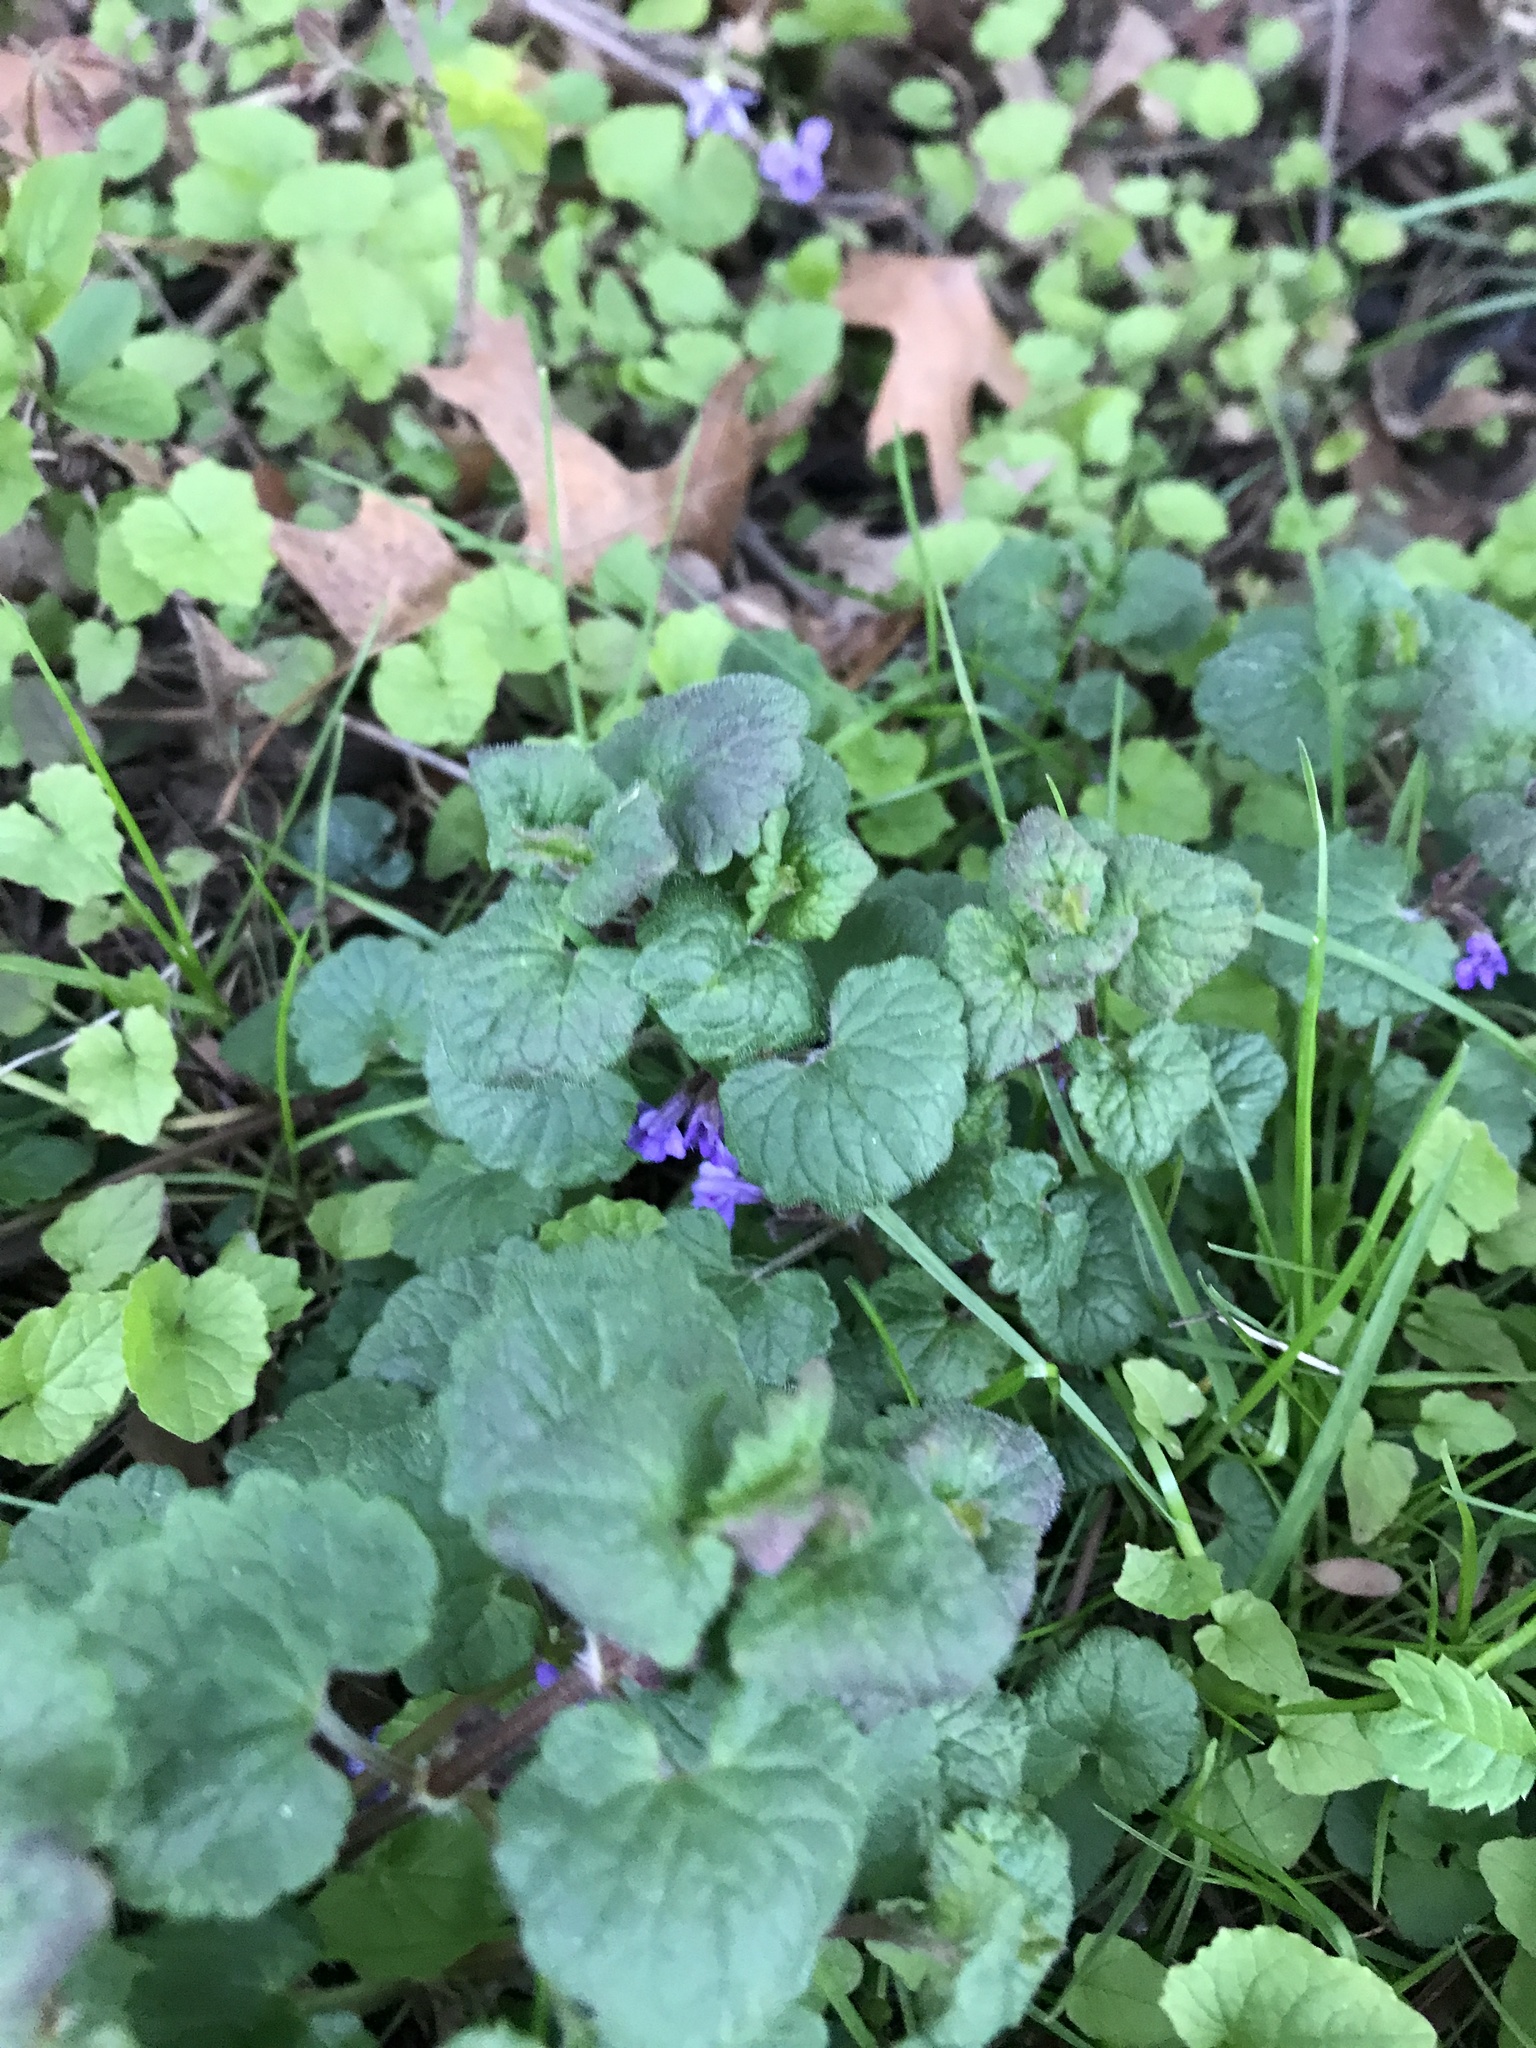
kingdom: Plantae
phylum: Tracheophyta
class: Magnoliopsida
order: Lamiales
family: Lamiaceae
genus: Glechoma
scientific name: Glechoma hederacea
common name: Ground ivy
